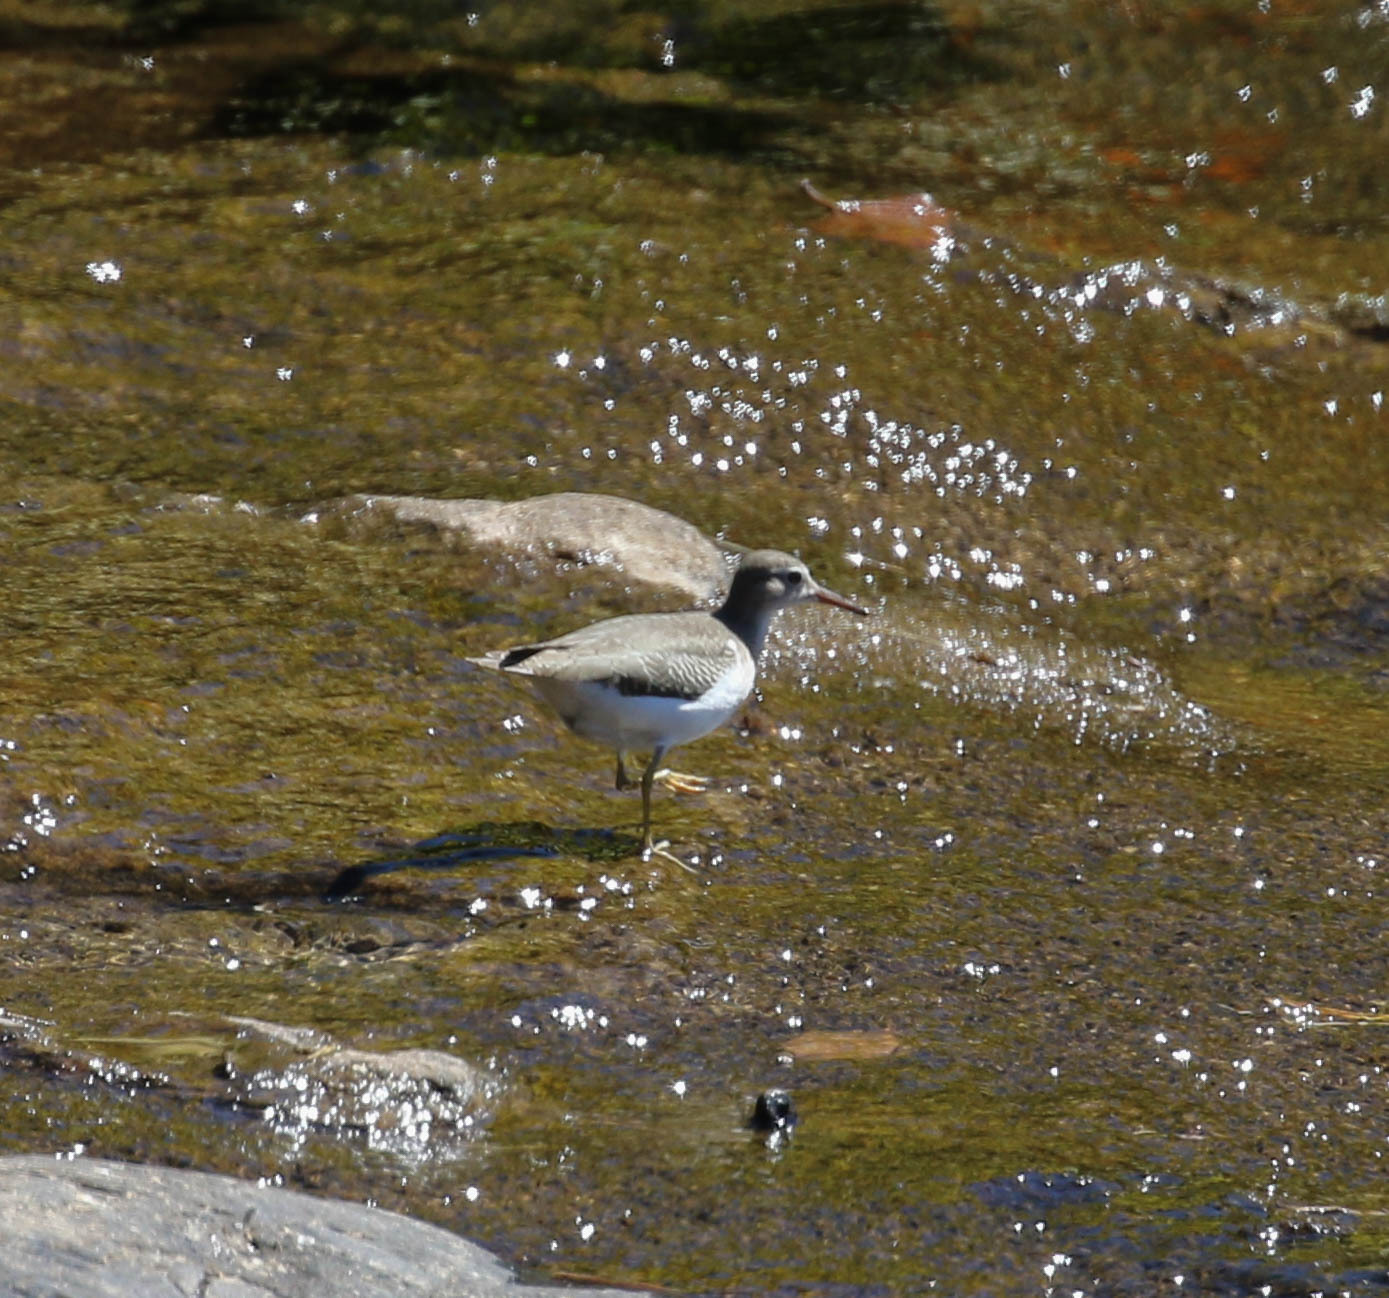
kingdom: Animalia
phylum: Chordata
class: Aves
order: Charadriiformes
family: Scolopacidae
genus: Actitis
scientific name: Actitis macularius
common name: Spotted sandpiper
